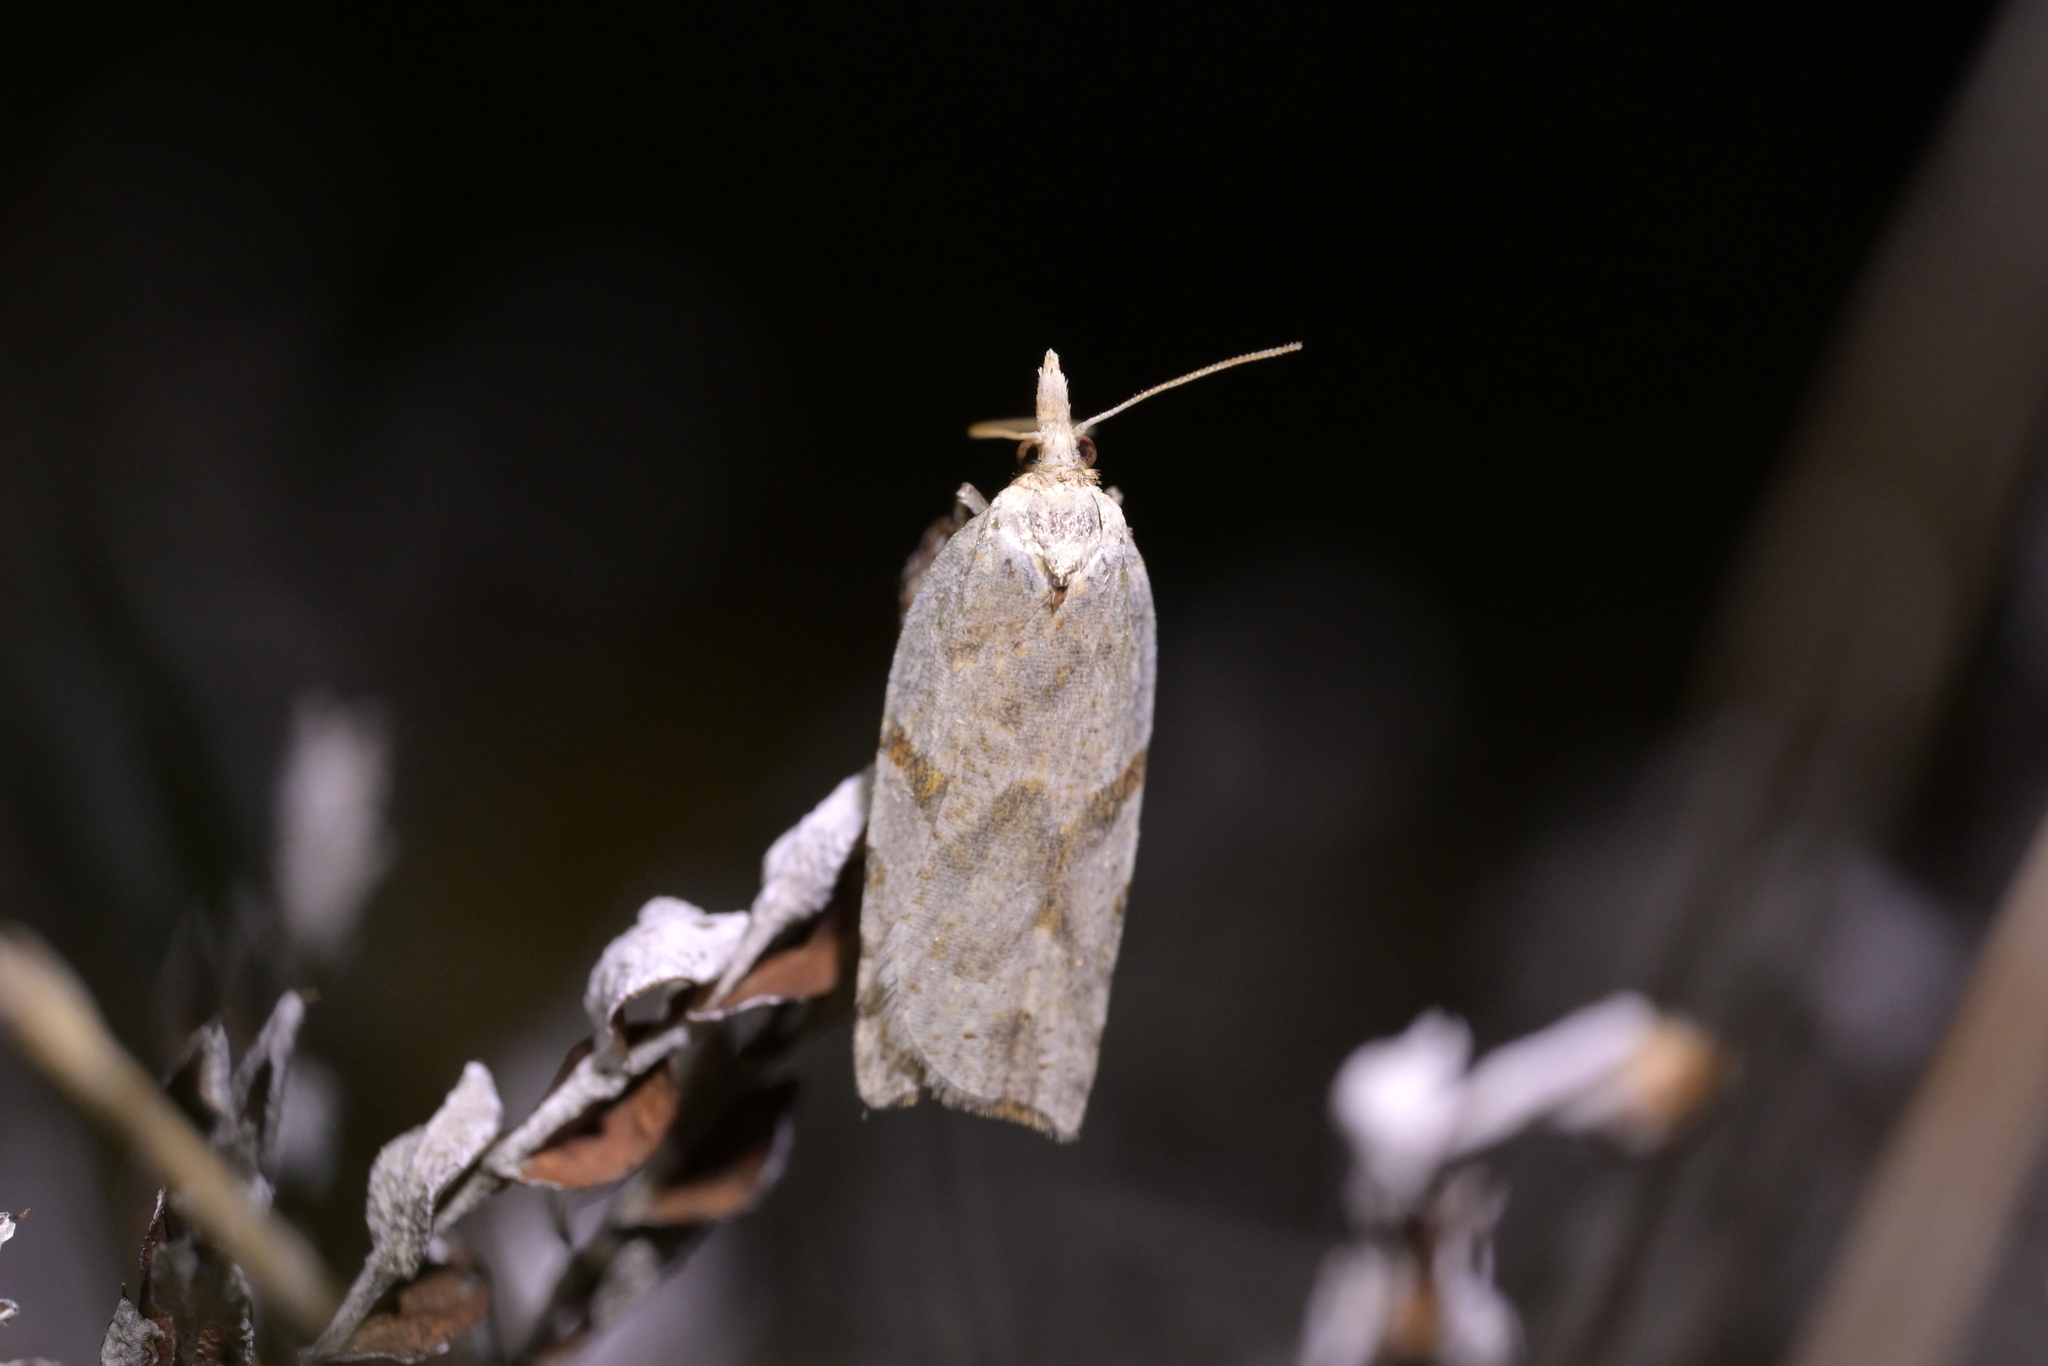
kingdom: Animalia
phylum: Arthropoda
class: Insecta
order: Lepidoptera
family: Tortricidae
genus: Leucotenes
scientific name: Leucotenes coprosmae
